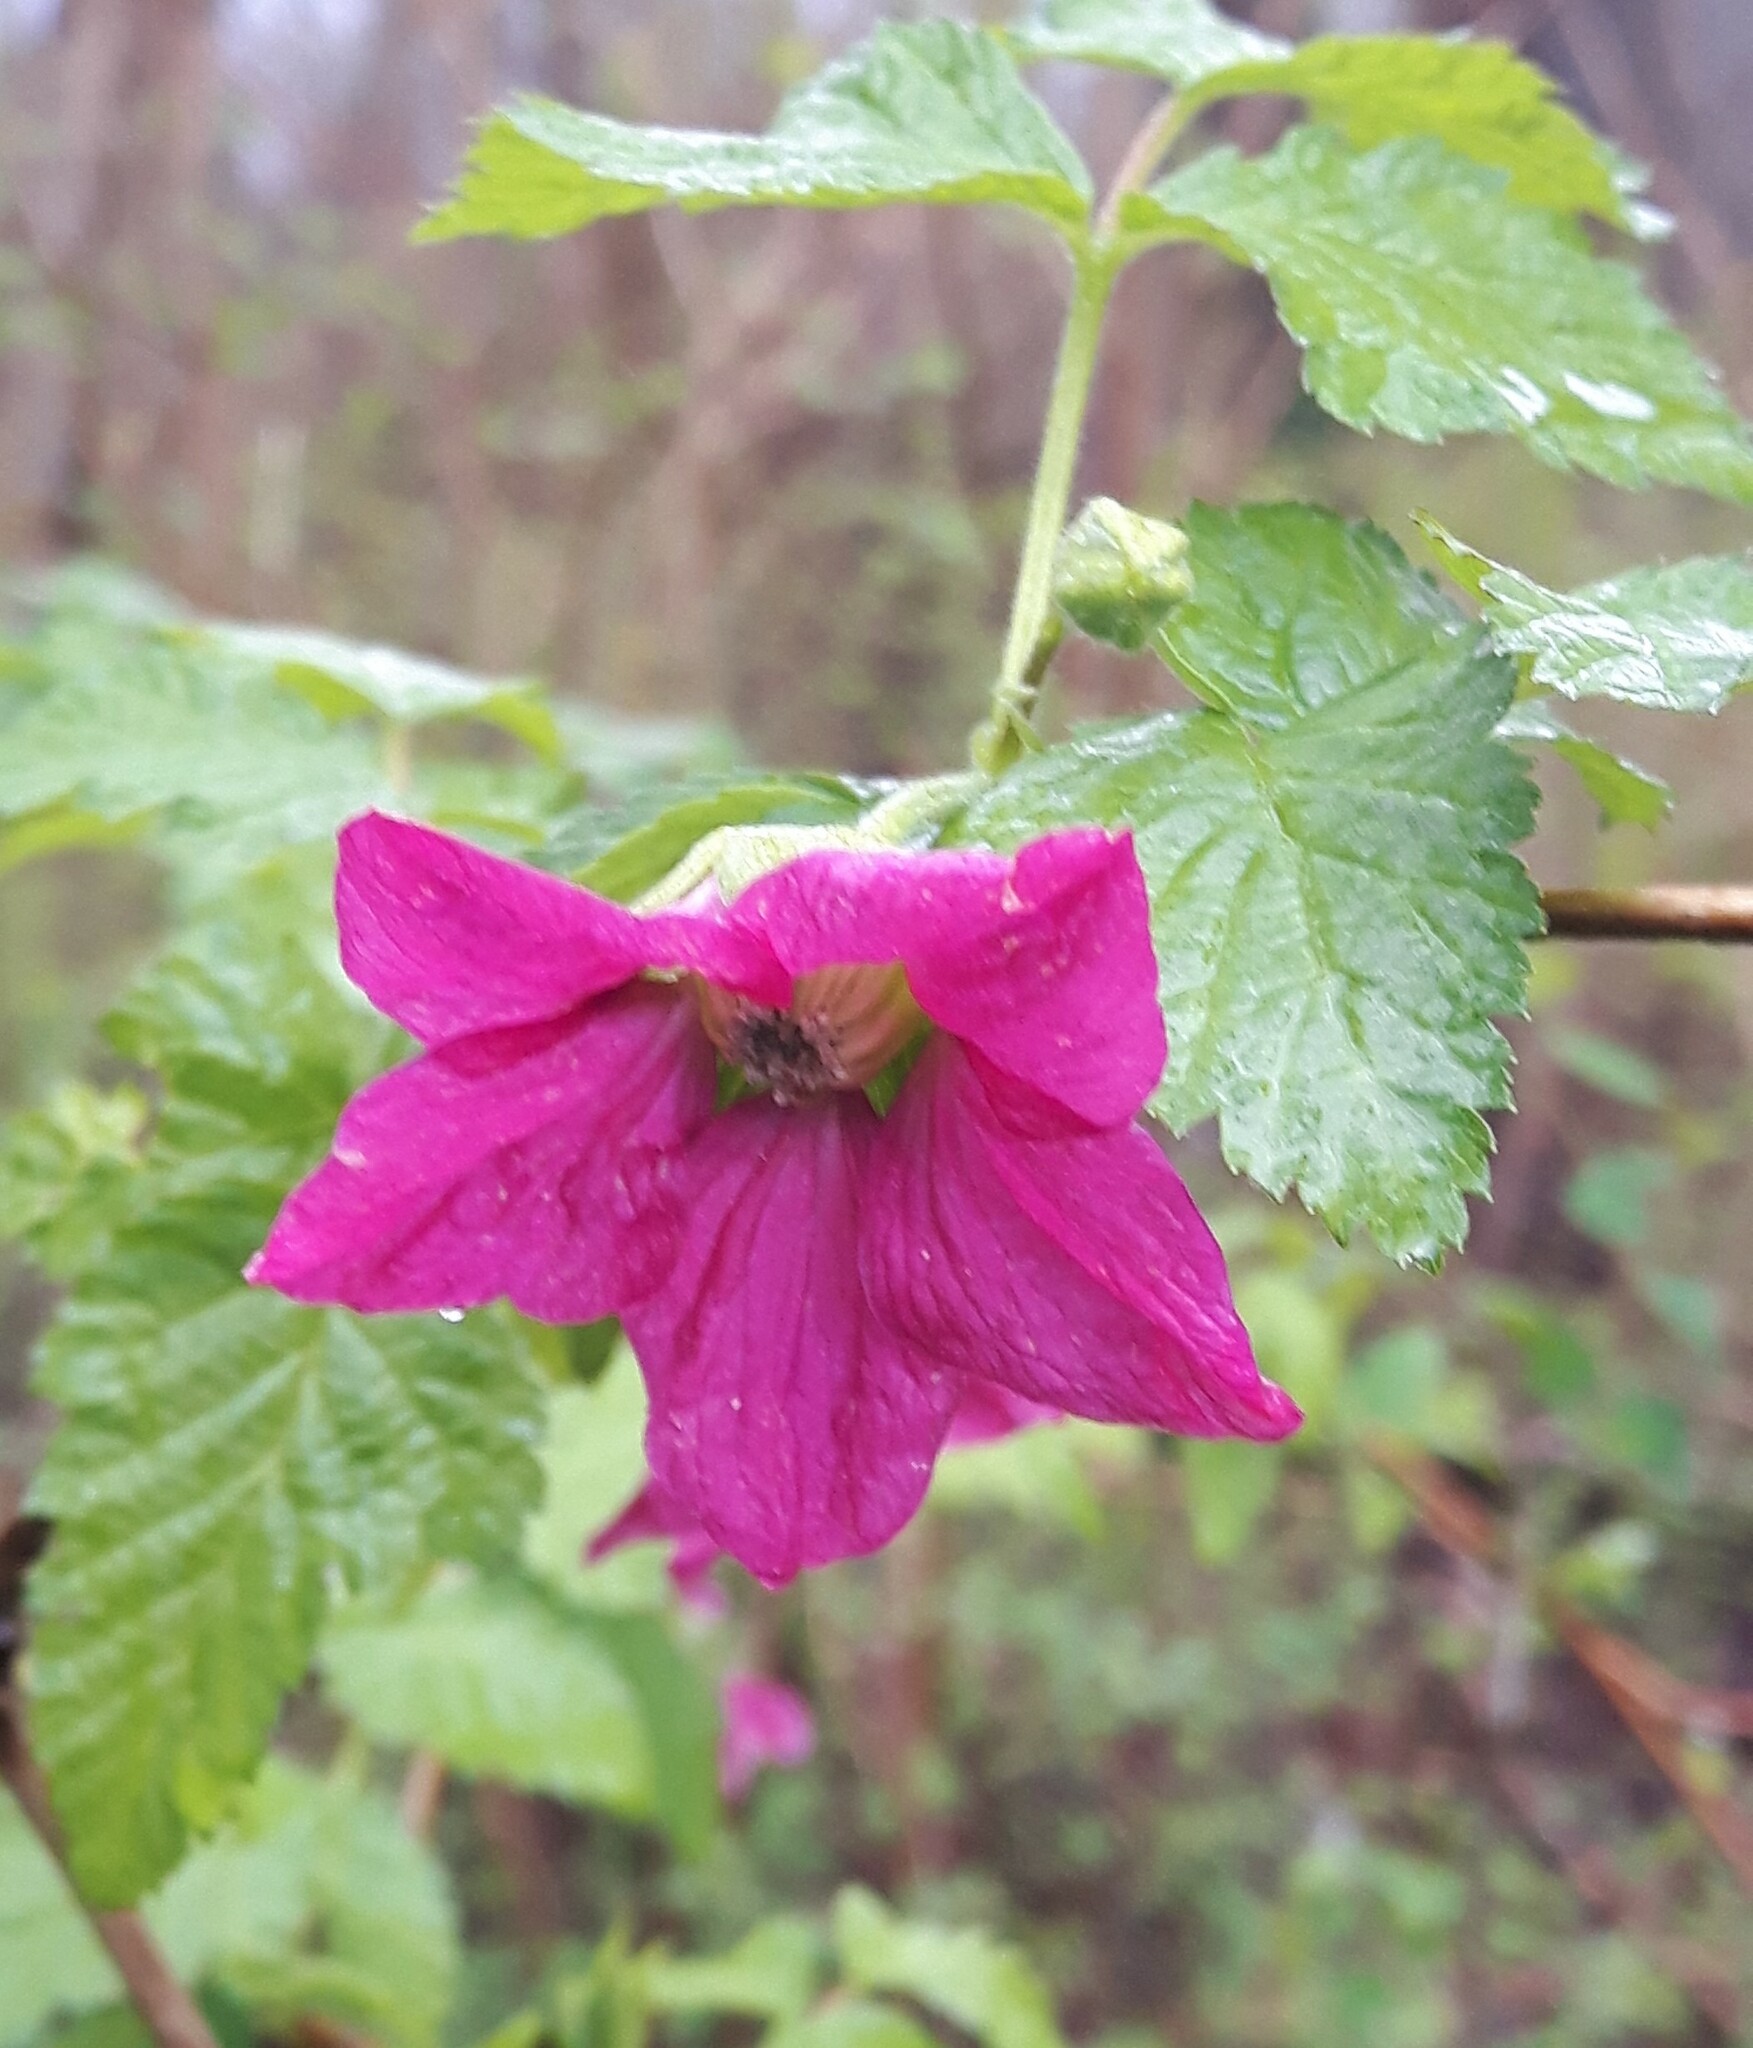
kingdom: Plantae
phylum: Tracheophyta
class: Magnoliopsida
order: Rosales
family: Rosaceae
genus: Rubus
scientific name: Rubus spectabilis
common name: Salmonberry
